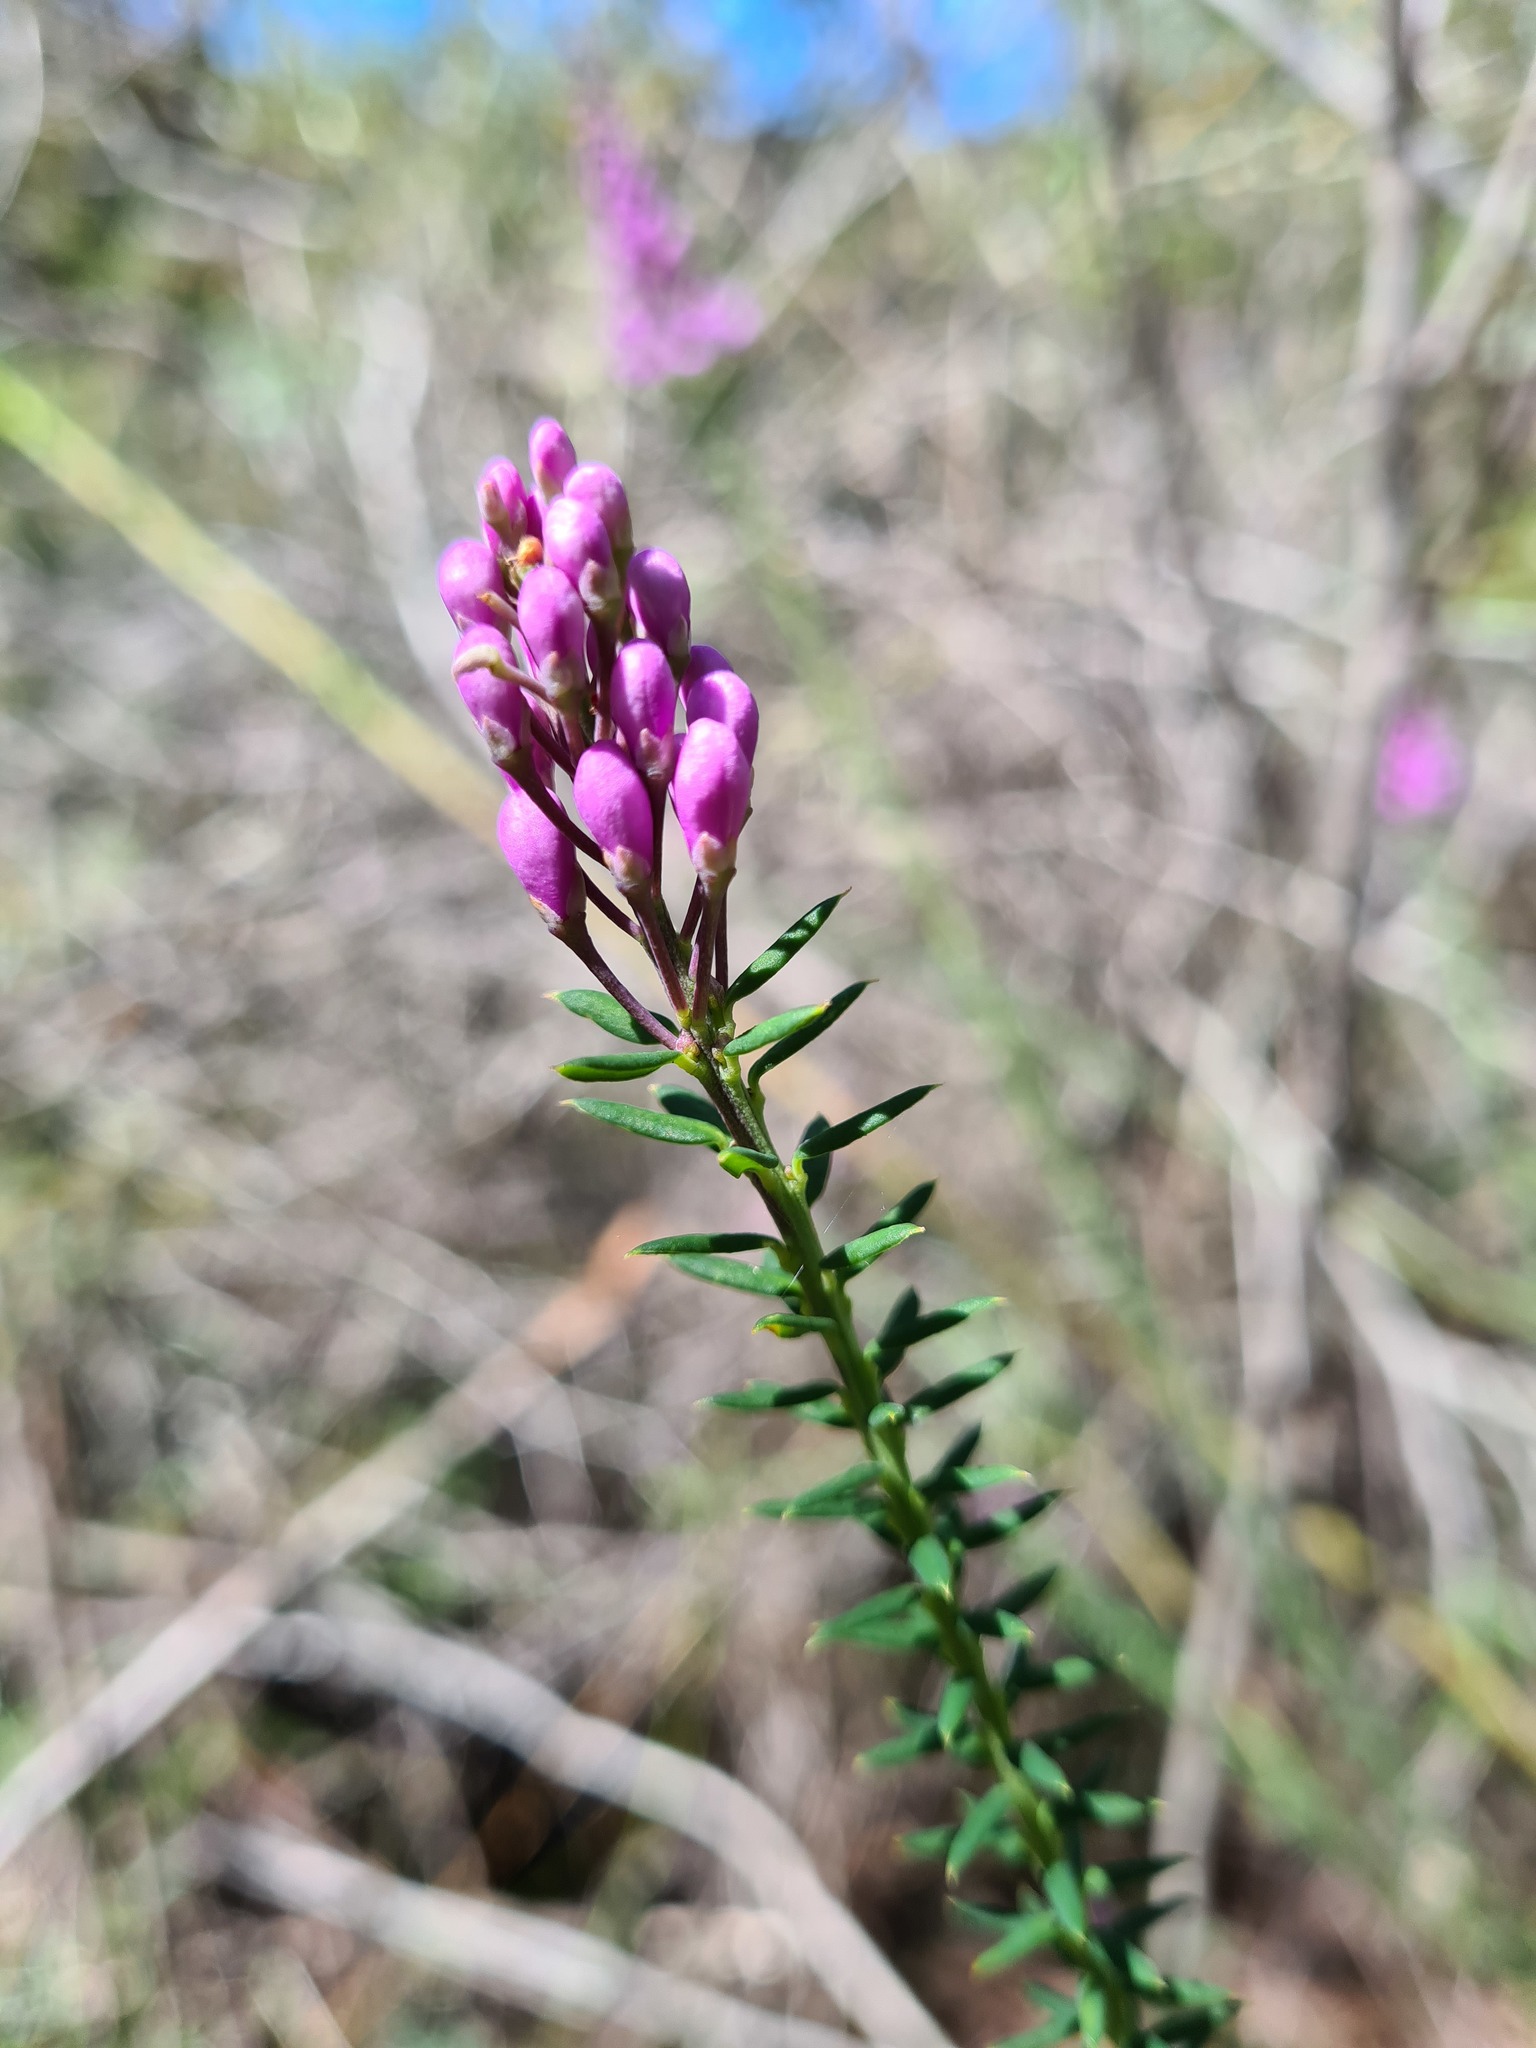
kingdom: Plantae
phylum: Tracheophyta
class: Magnoliopsida
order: Fabales
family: Polygalaceae
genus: Comesperma
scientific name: Comesperma ericinum
